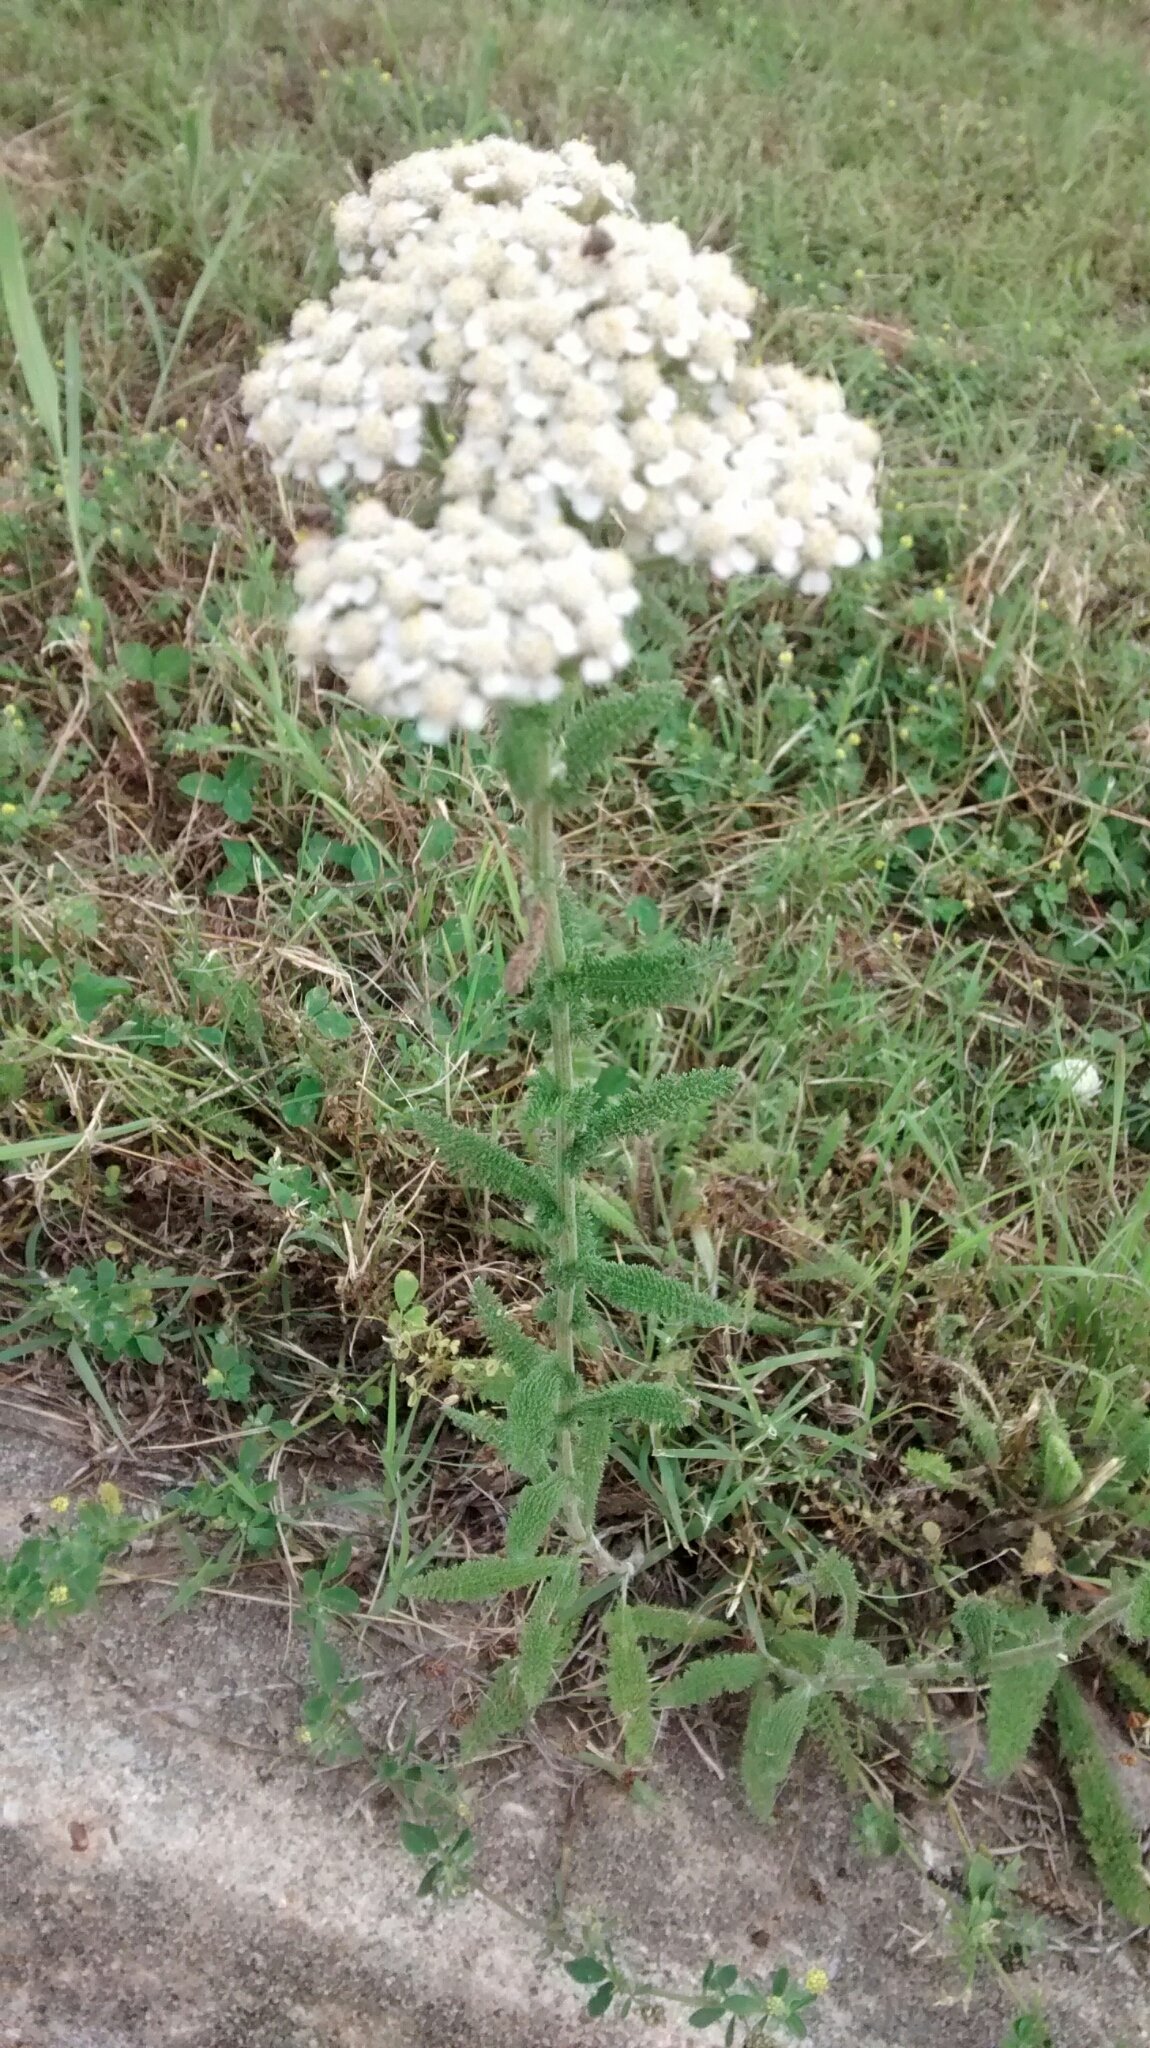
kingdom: Plantae
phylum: Tracheophyta
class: Magnoliopsida
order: Asterales
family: Asteraceae
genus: Achillea
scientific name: Achillea millefolium
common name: Yarrow
